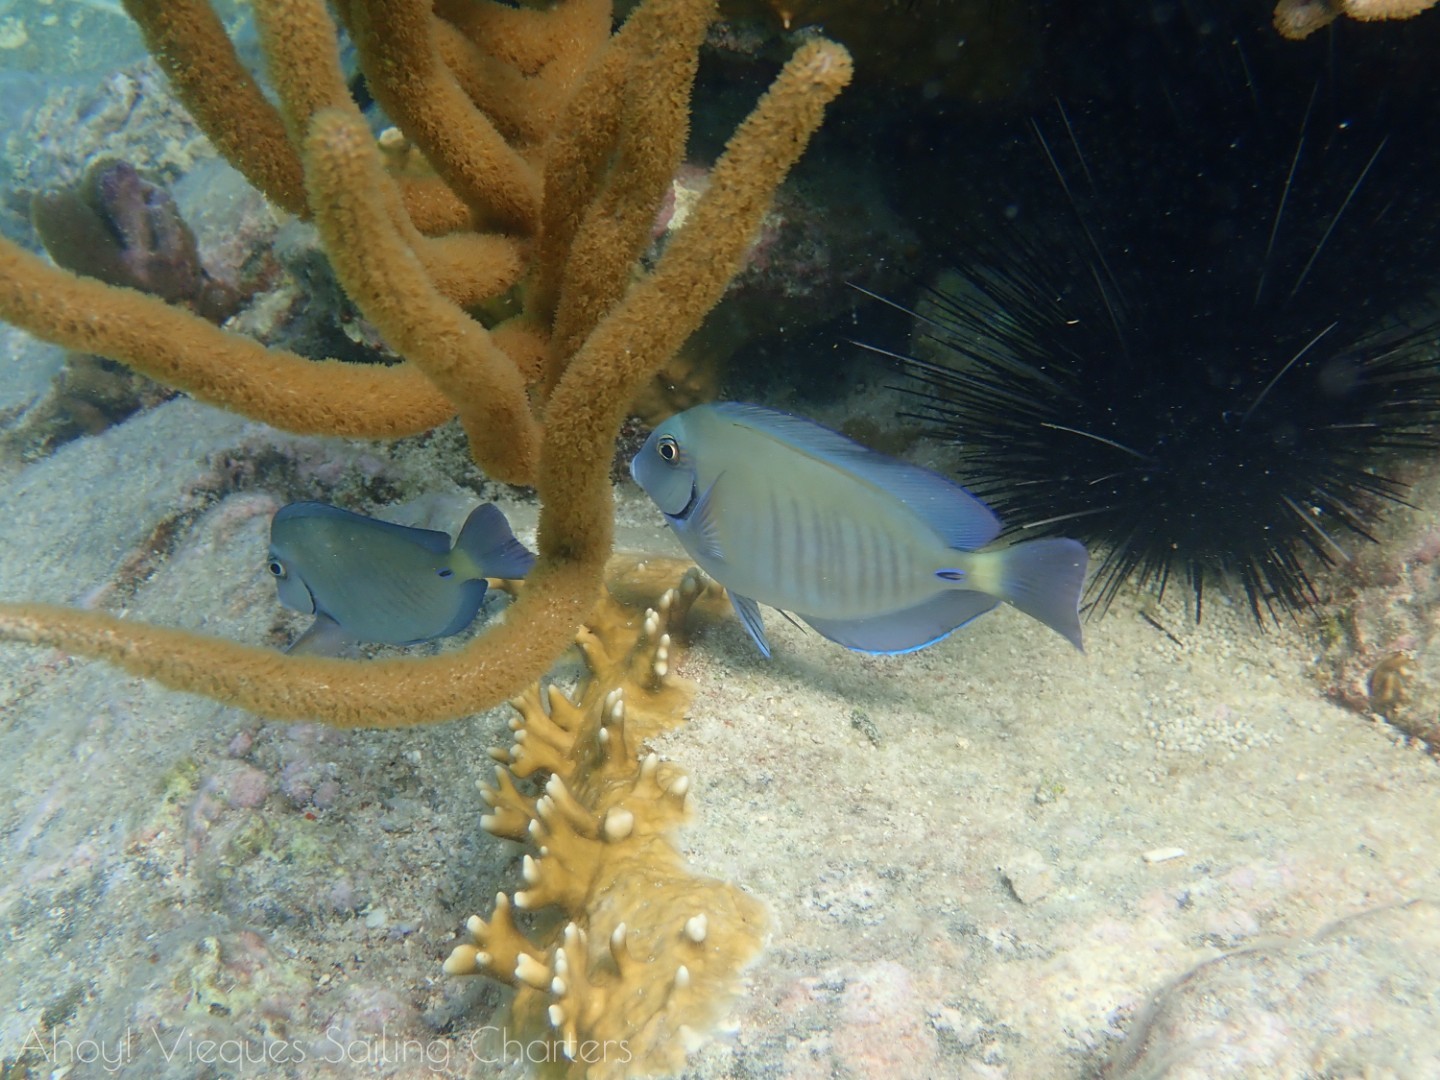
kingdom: Animalia
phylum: Chordata
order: Perciformes
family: Acanthuridae
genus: Acanthurus
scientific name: Acanthurus chirurgus
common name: Doctorfish
